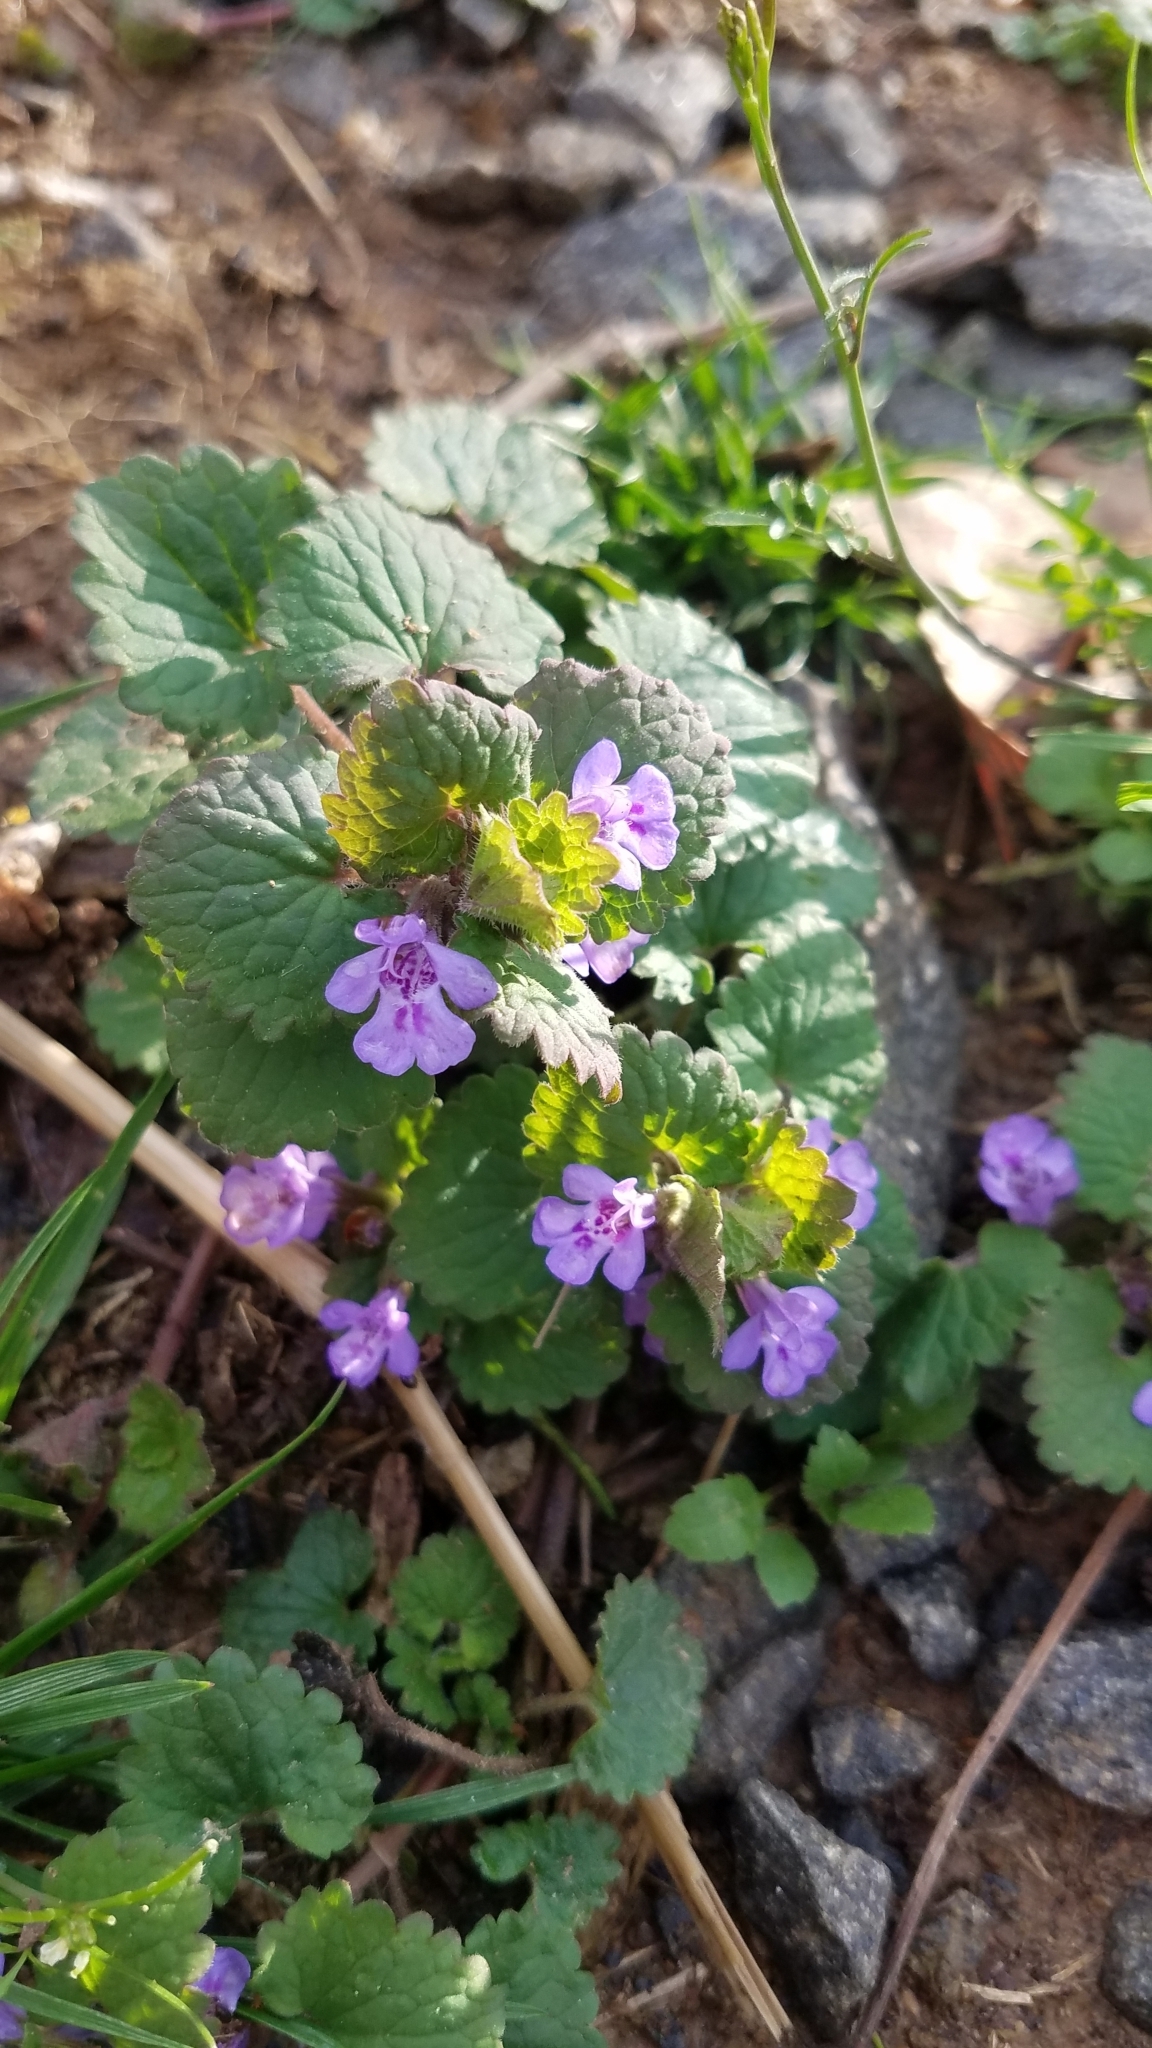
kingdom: Plantae
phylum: Tracheophyta
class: Magnoliopsida
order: Lamiales
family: Lamiaceae
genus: Glechoma
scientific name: Glechoma hederacea
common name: Ground ivy
